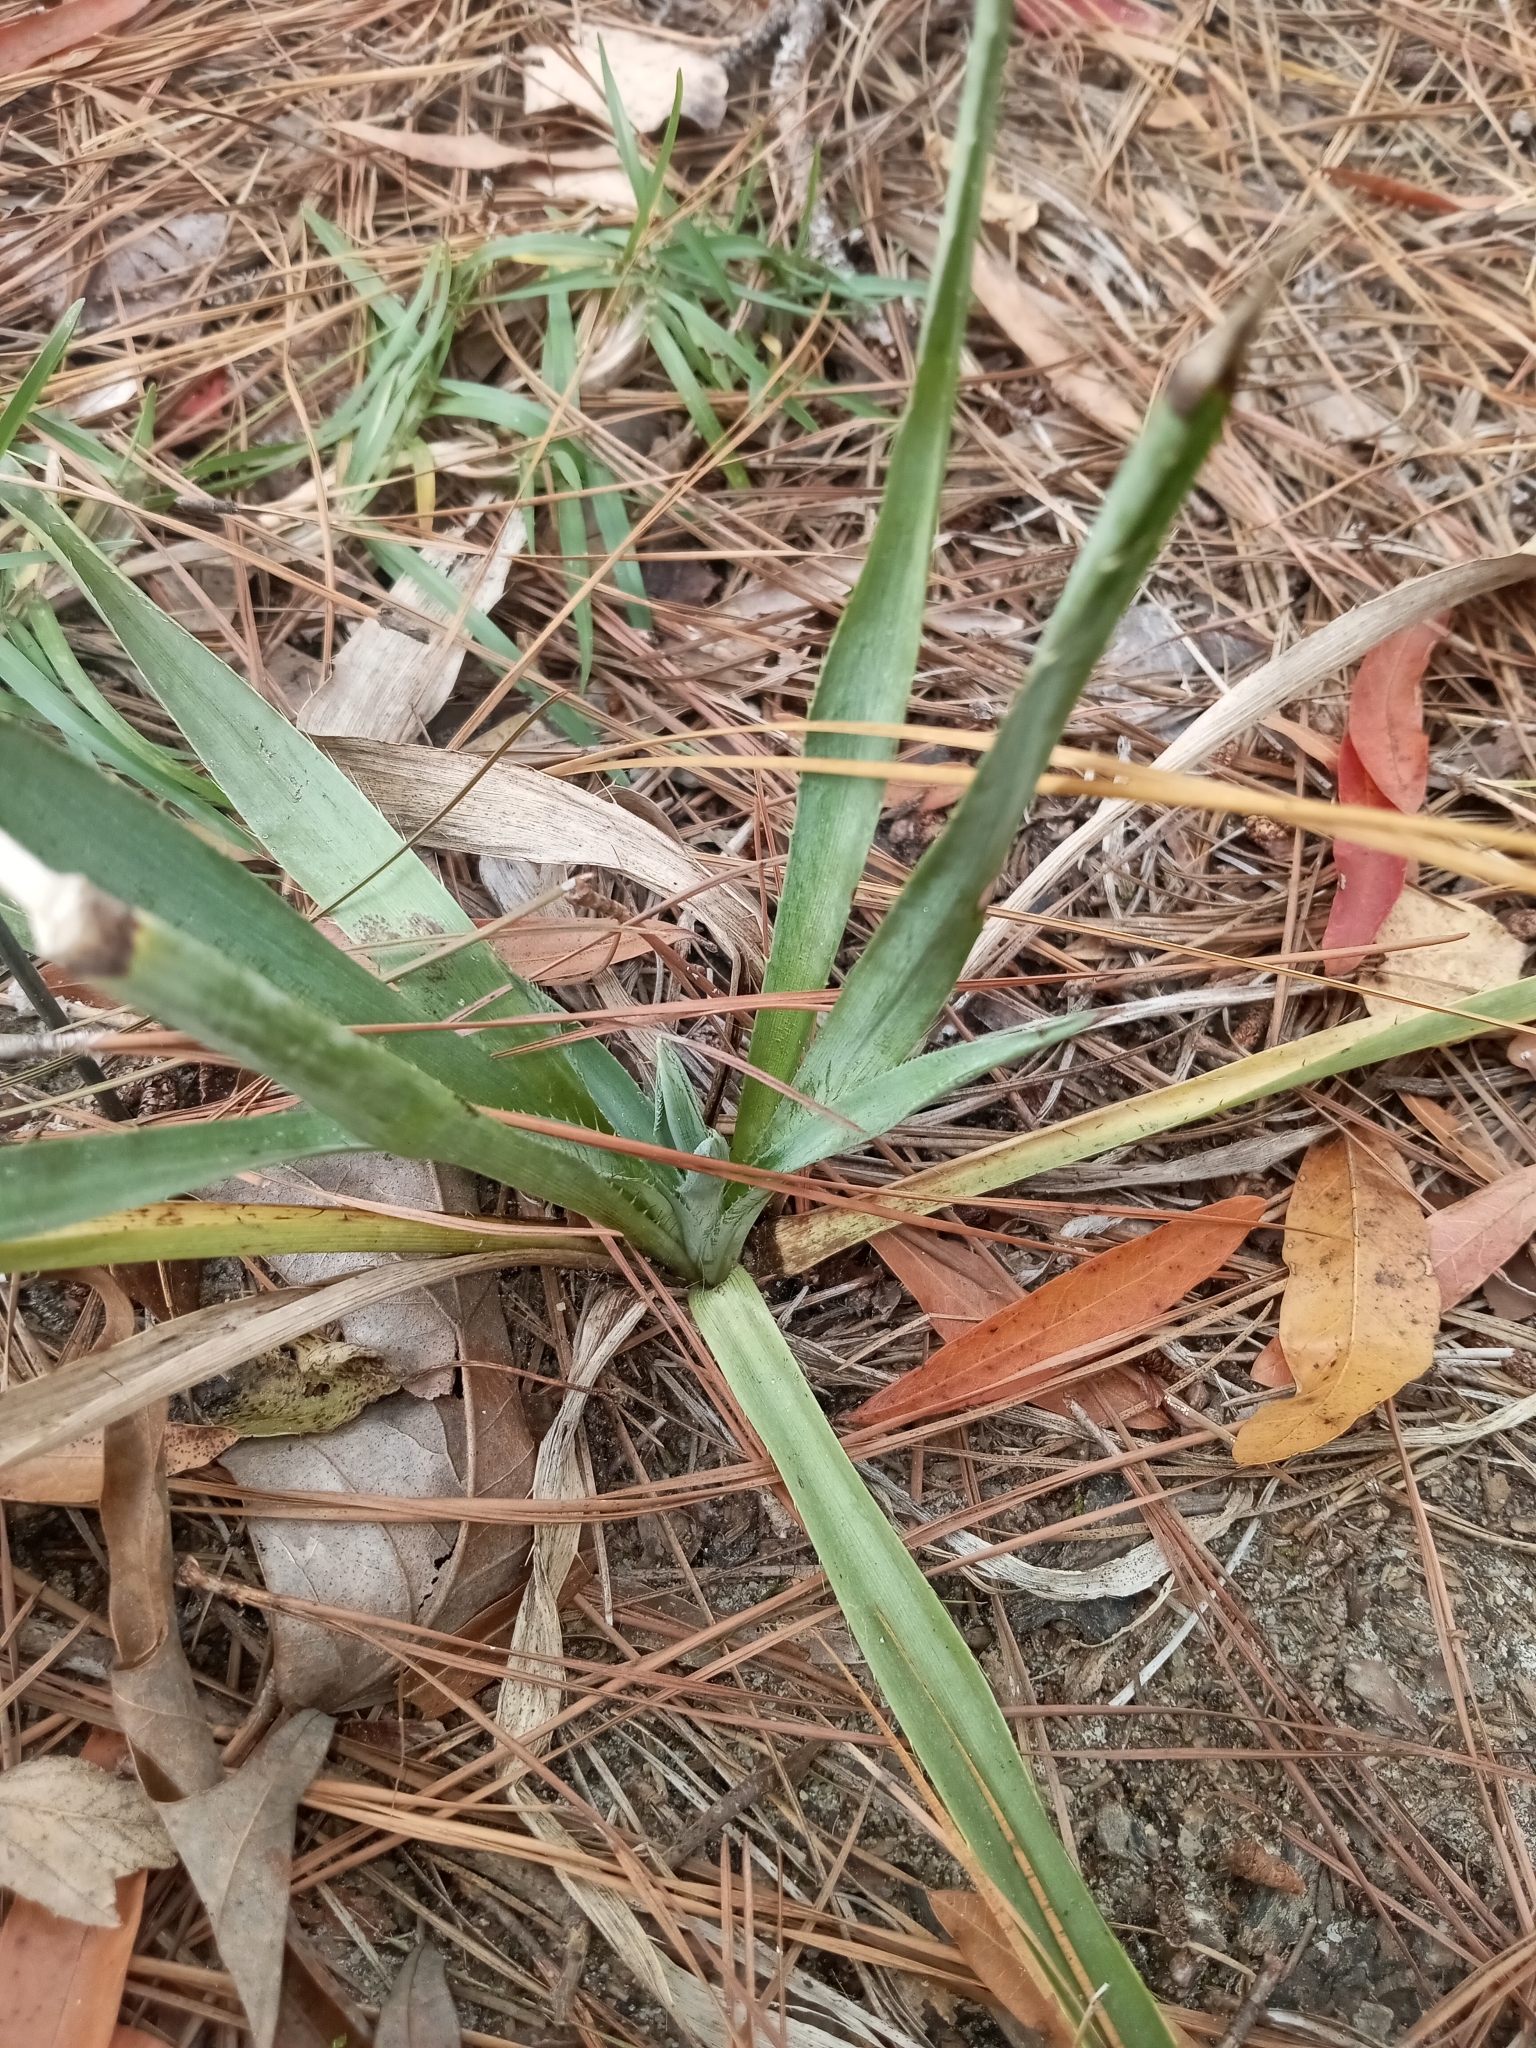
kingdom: Plantae
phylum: Tracheophyta
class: Magnoliopsida
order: Apiales
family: Apiaceae
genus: Eryngium
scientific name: Eryngium yuccifolium
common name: Button eryngo
